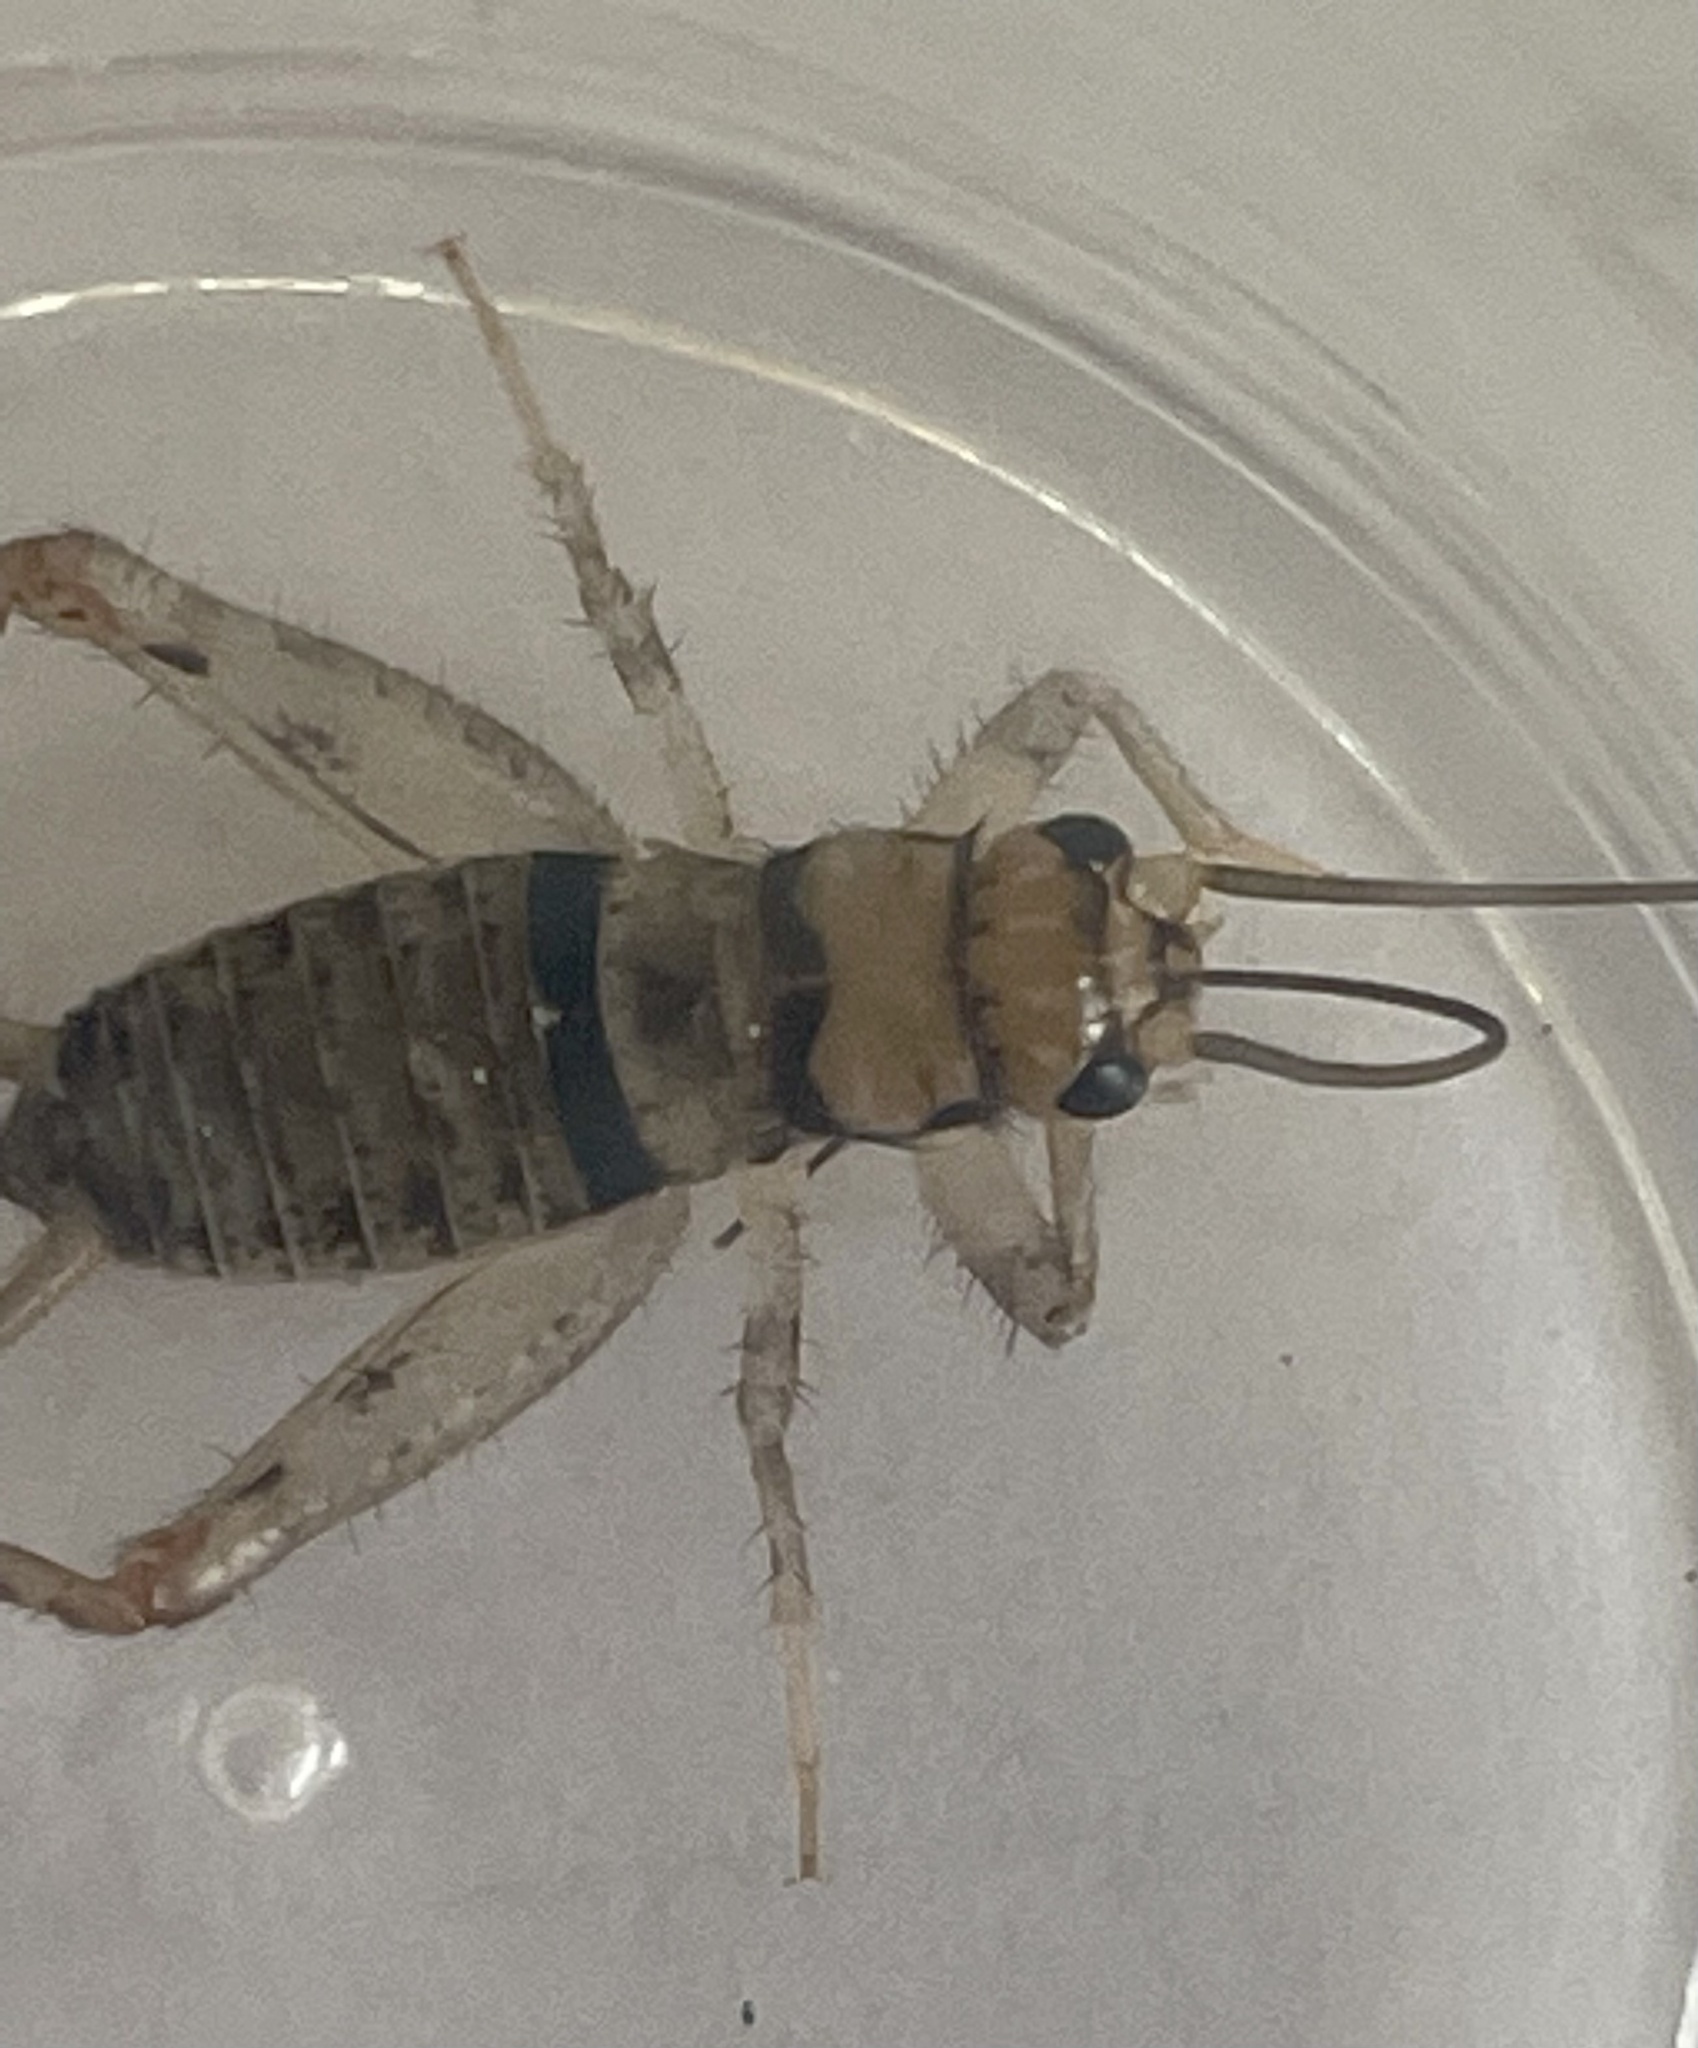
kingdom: Animalia
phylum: Arthropoda
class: Insecta
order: Orthoptera
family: Gryllidae
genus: Gryllodes
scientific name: Gryllodes sigillatus
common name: Tropical house cricket
